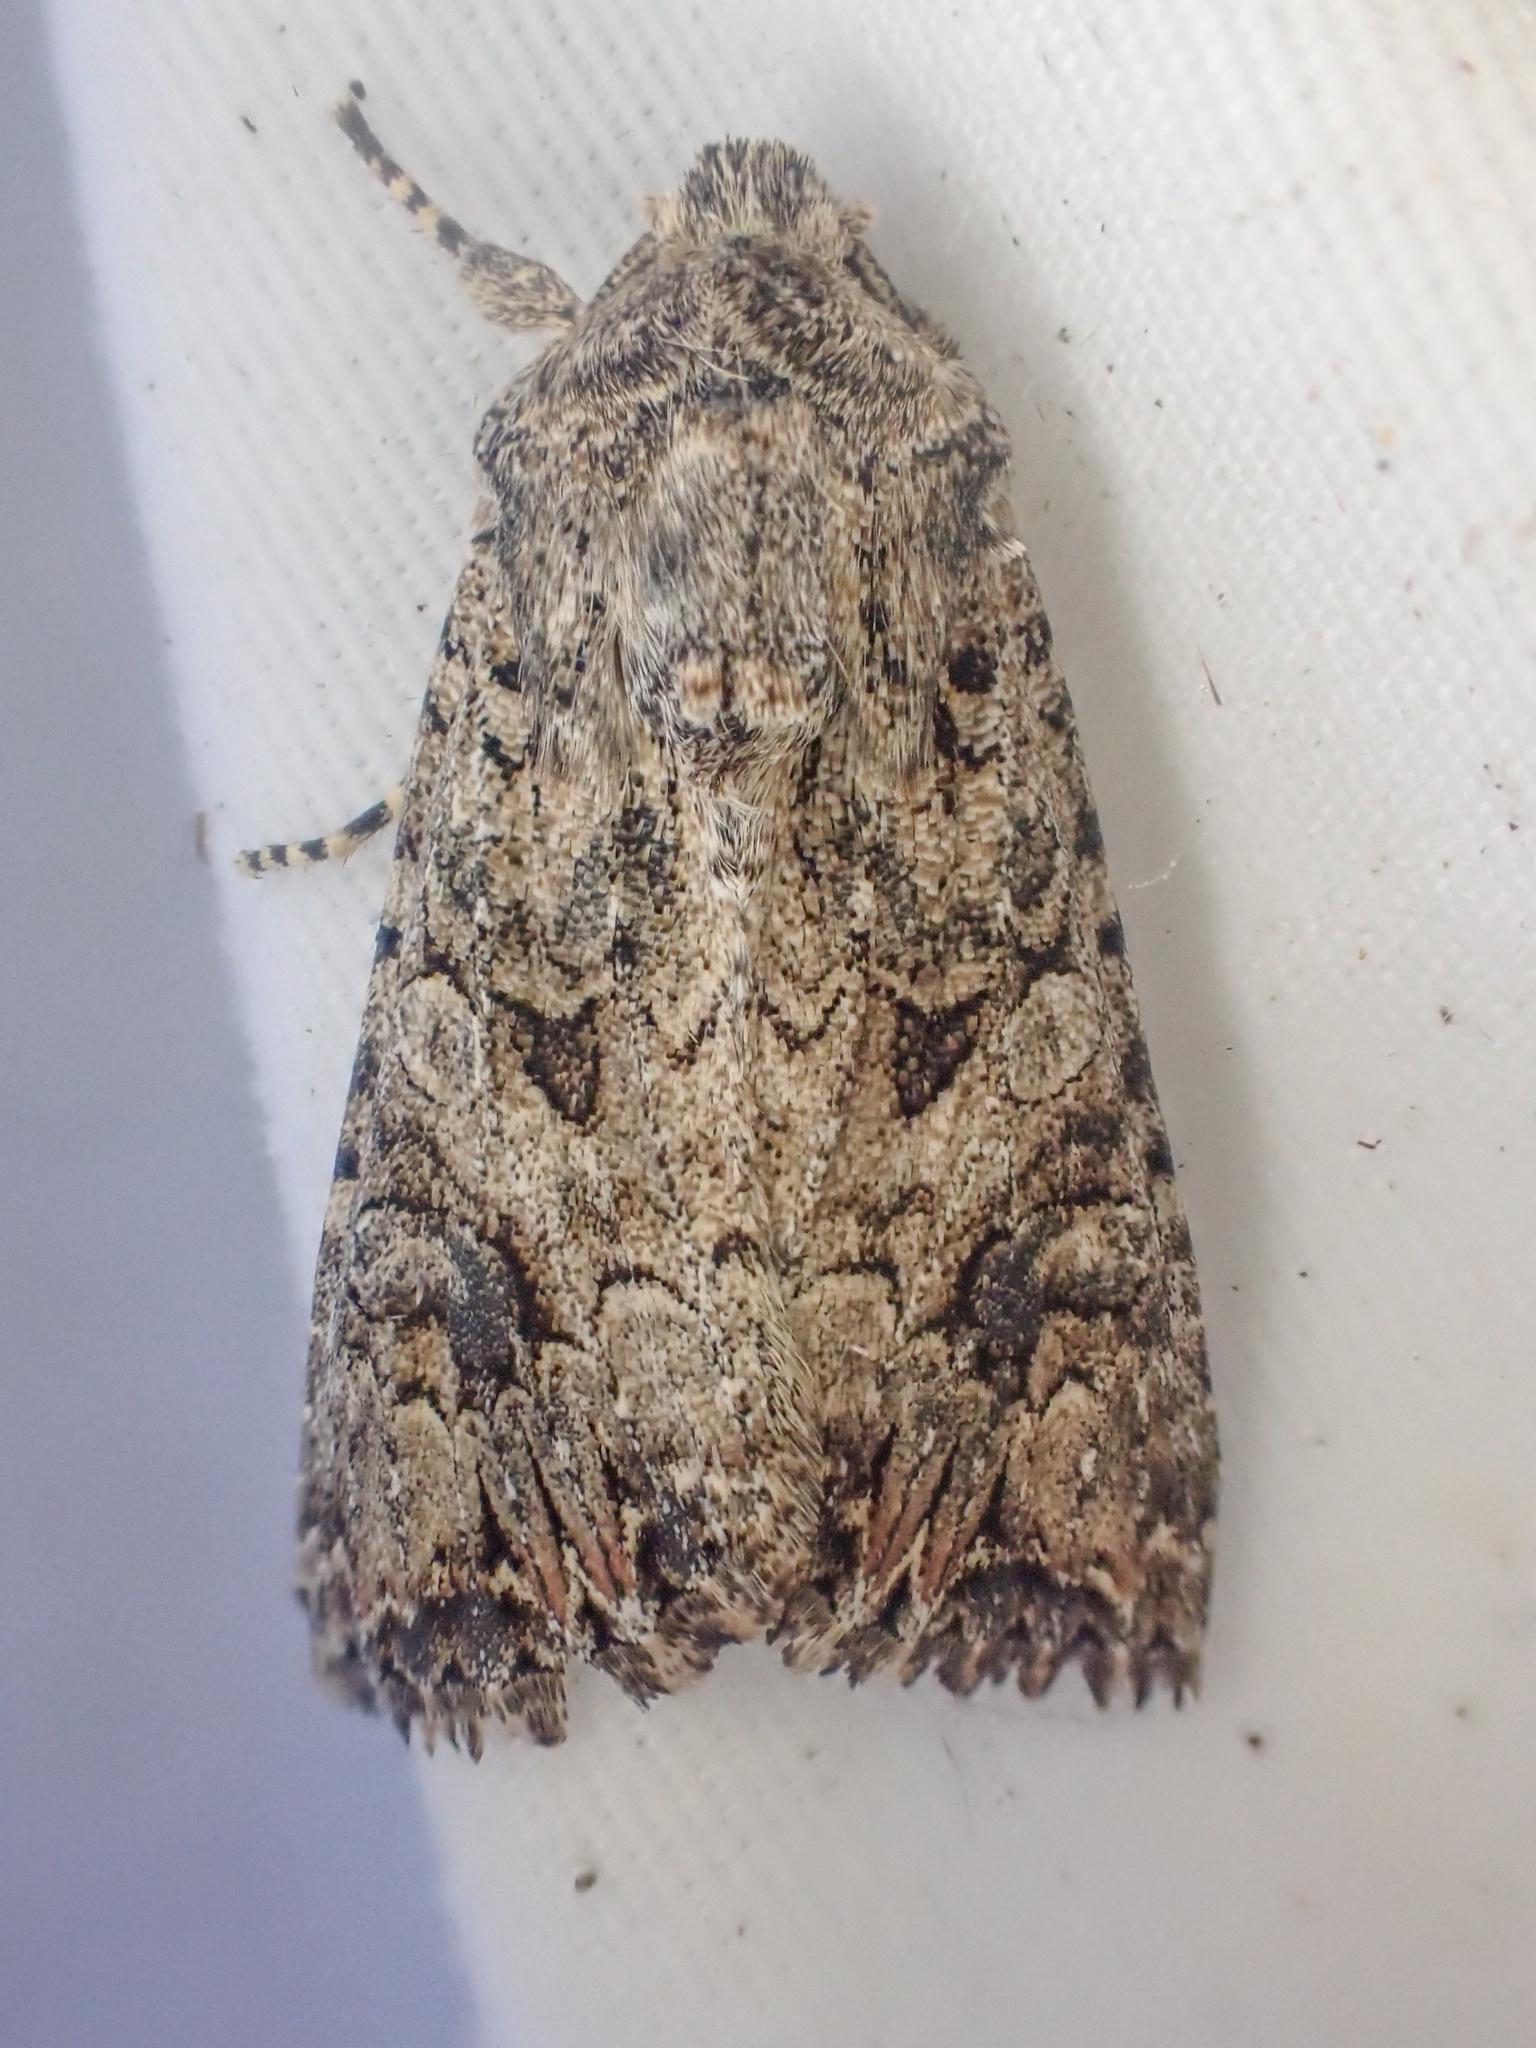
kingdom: Animalia
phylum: Arthropoda
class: Insecta
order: Lepidoptera
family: Noctuidae
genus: Anarta
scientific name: Anarta trifolii
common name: Clover cutworm moth
